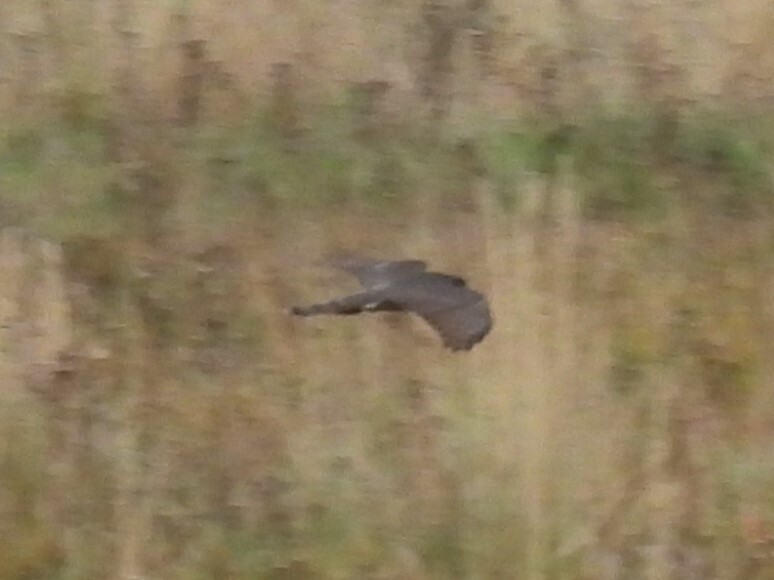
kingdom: Animalia
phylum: Chordata
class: Aves
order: Accipitriformes
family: Accipitridae
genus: Accipiter
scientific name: Accipiter nisus
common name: Eurasian sparrowhawk
